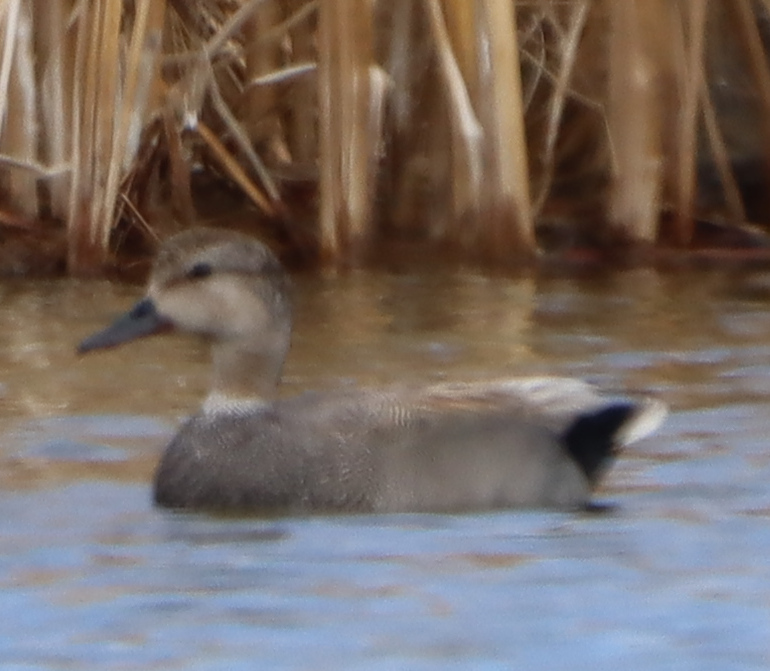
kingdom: Animalia
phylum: Chordata
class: Aves
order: Anseriformes
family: Anatidae
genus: Mareca
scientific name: Mareca strepera
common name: Gadwall
